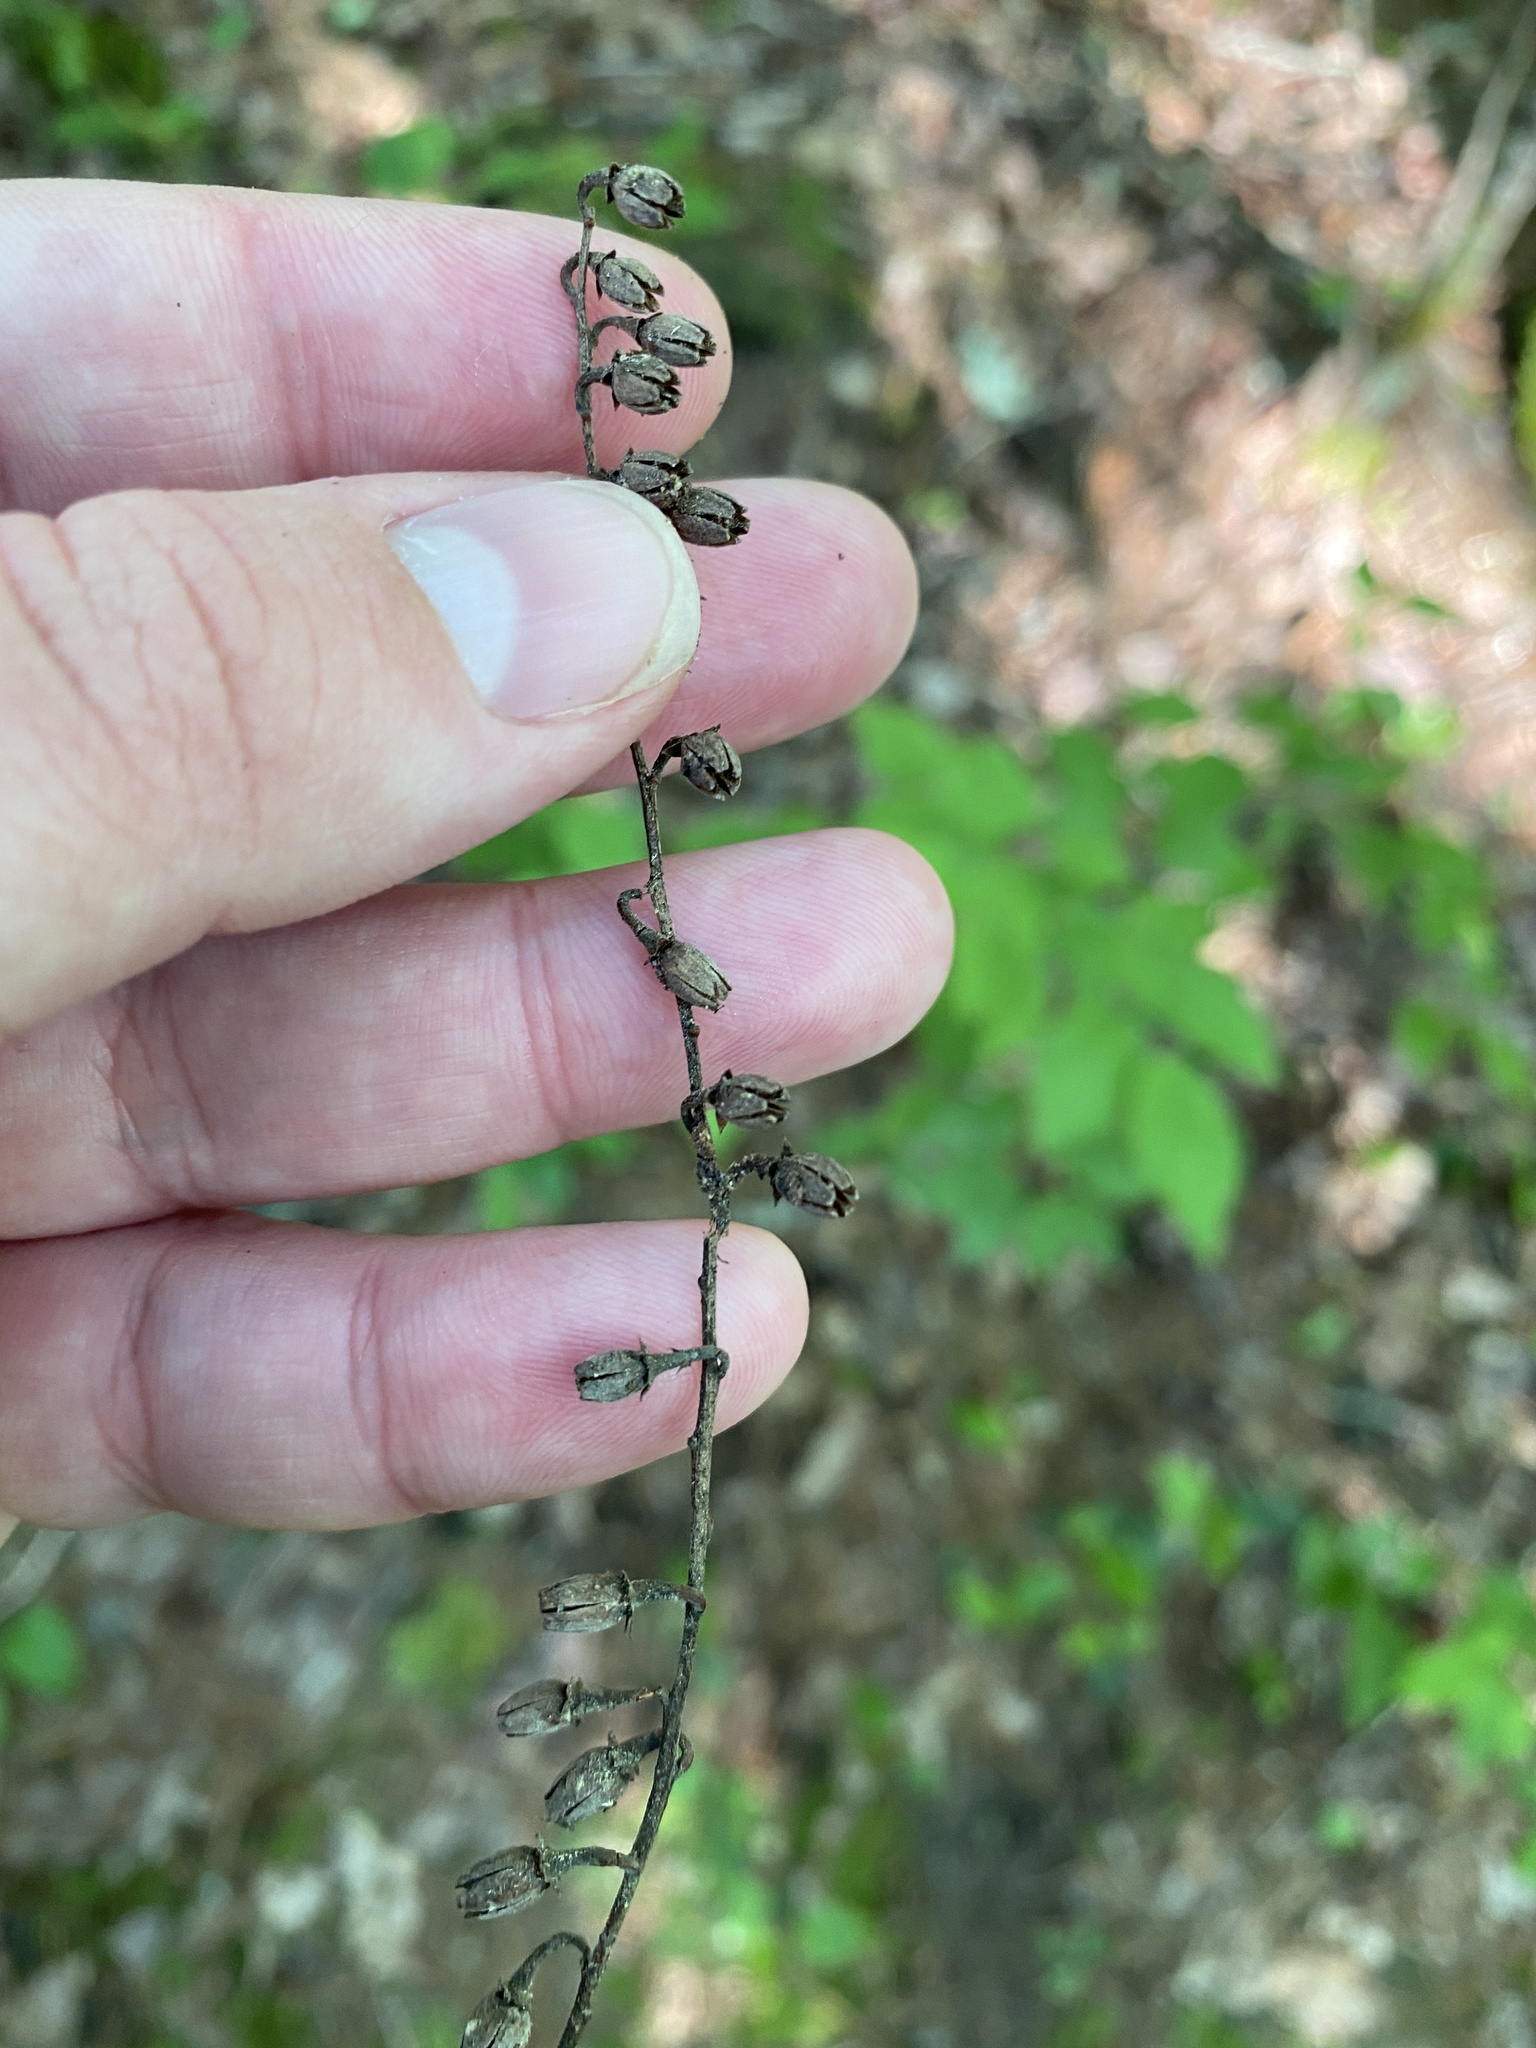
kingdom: Plantae
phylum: Tracheophyta
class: Magnoliopsida
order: Ericales
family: Ericaceae
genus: Oxydendrum
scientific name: Oxydendrum arboreum
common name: Sourwood
